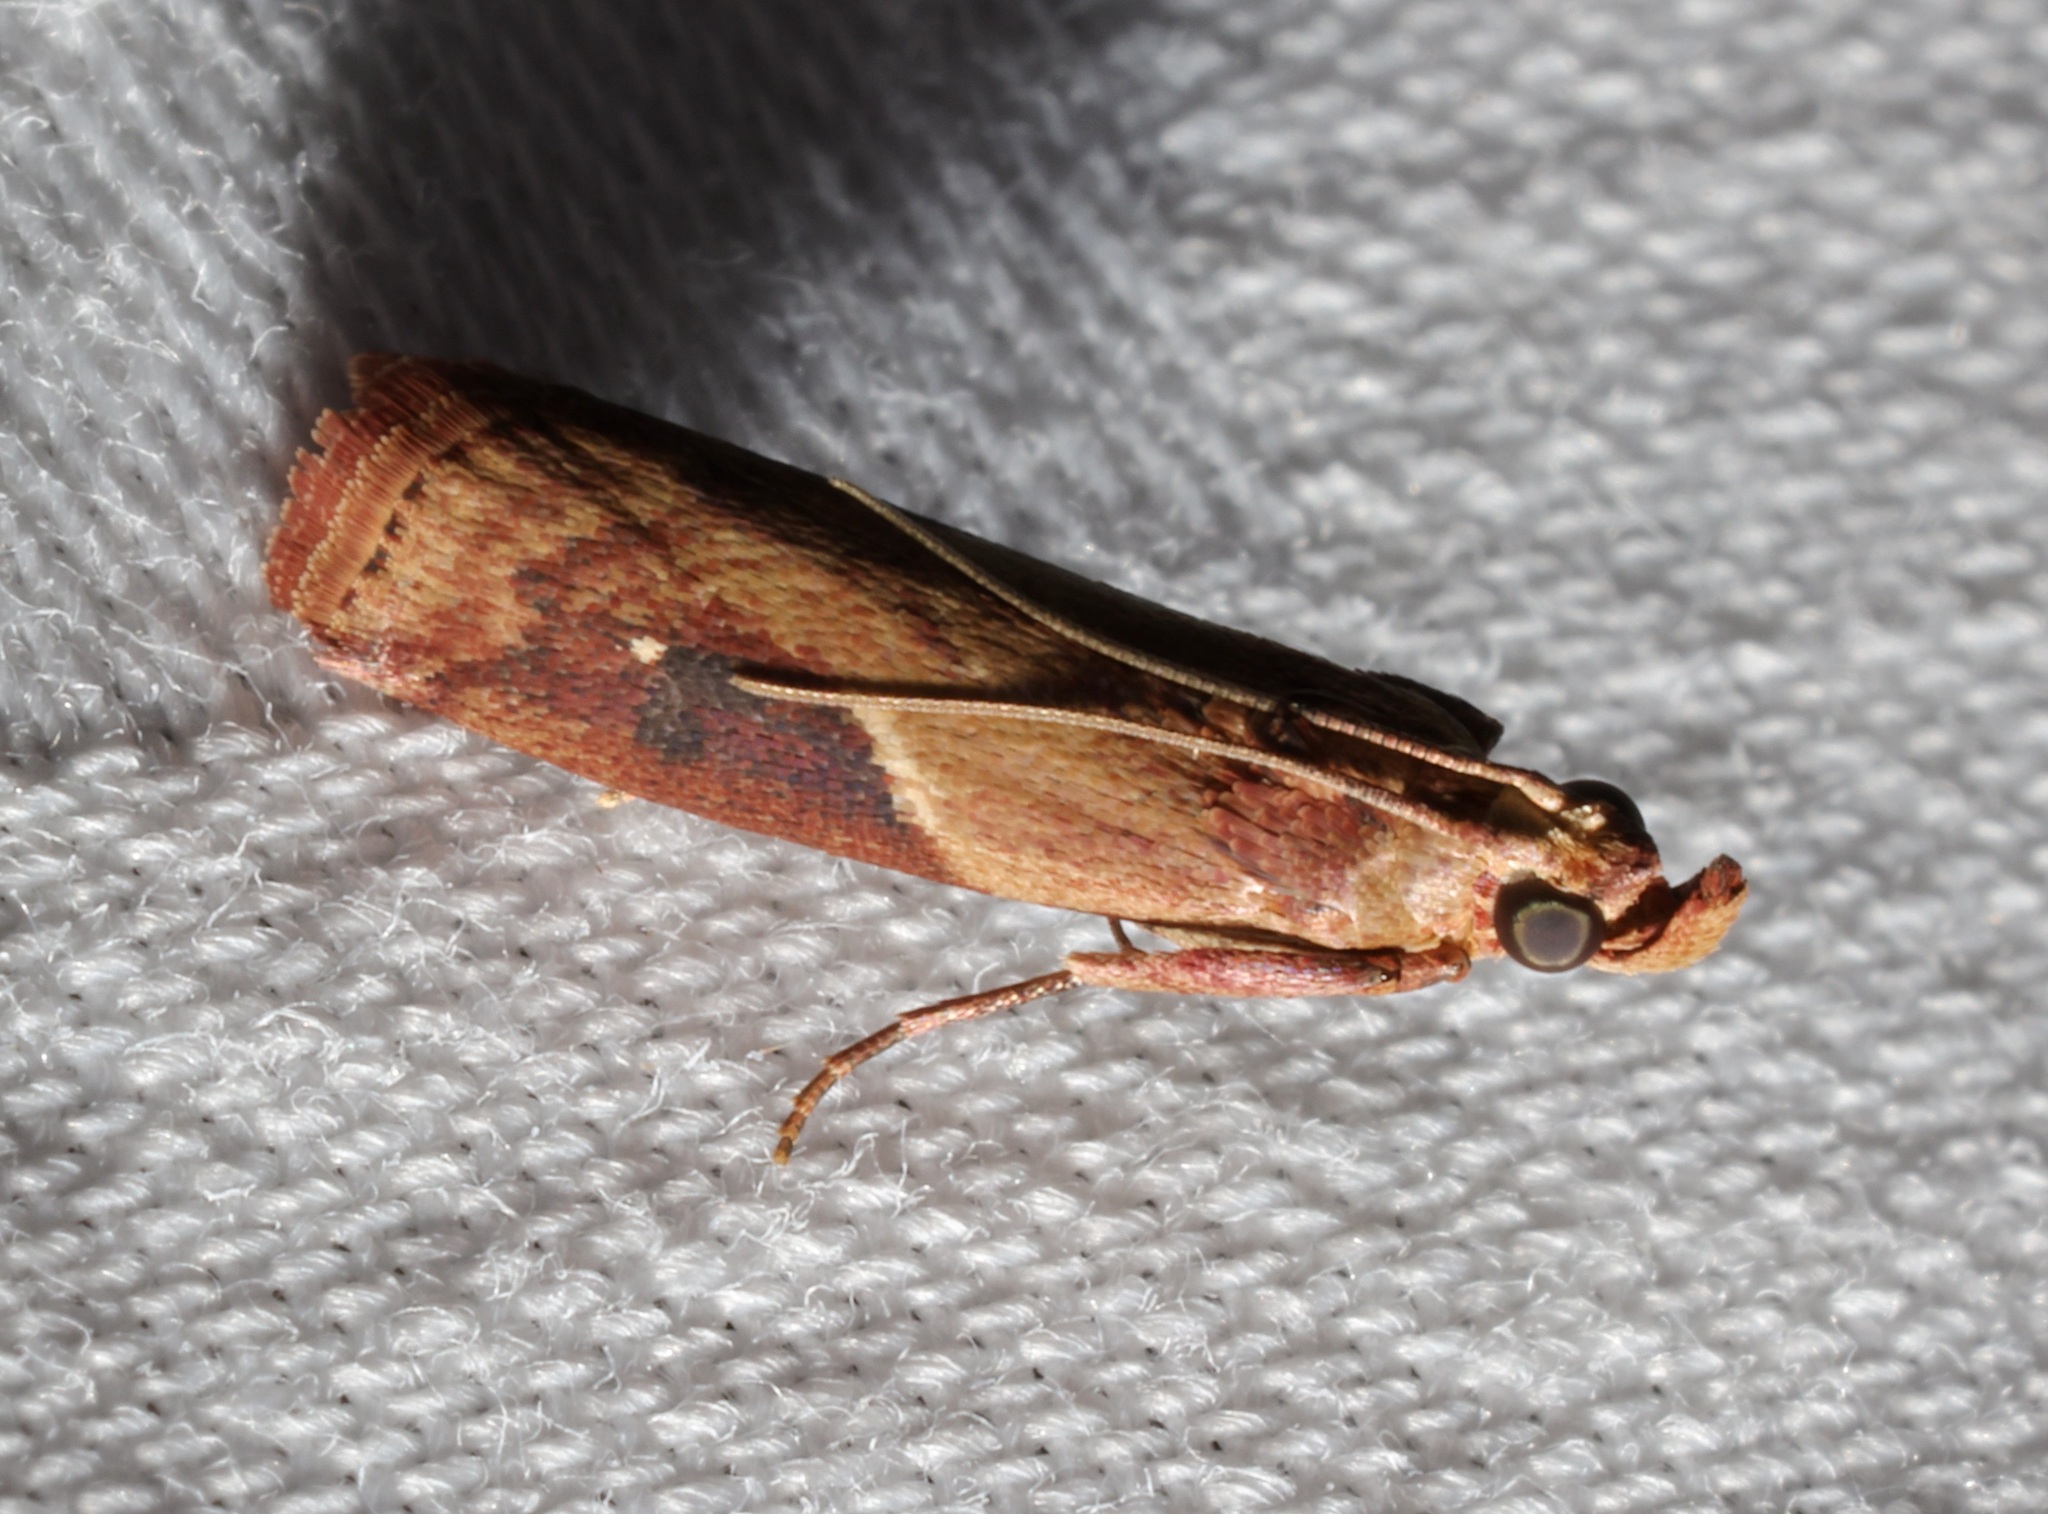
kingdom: Animalia
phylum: Arthropoda
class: Insecta
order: Lepidoptera
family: Pyralidae
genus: Volobilis
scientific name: Volobilis biplaga
